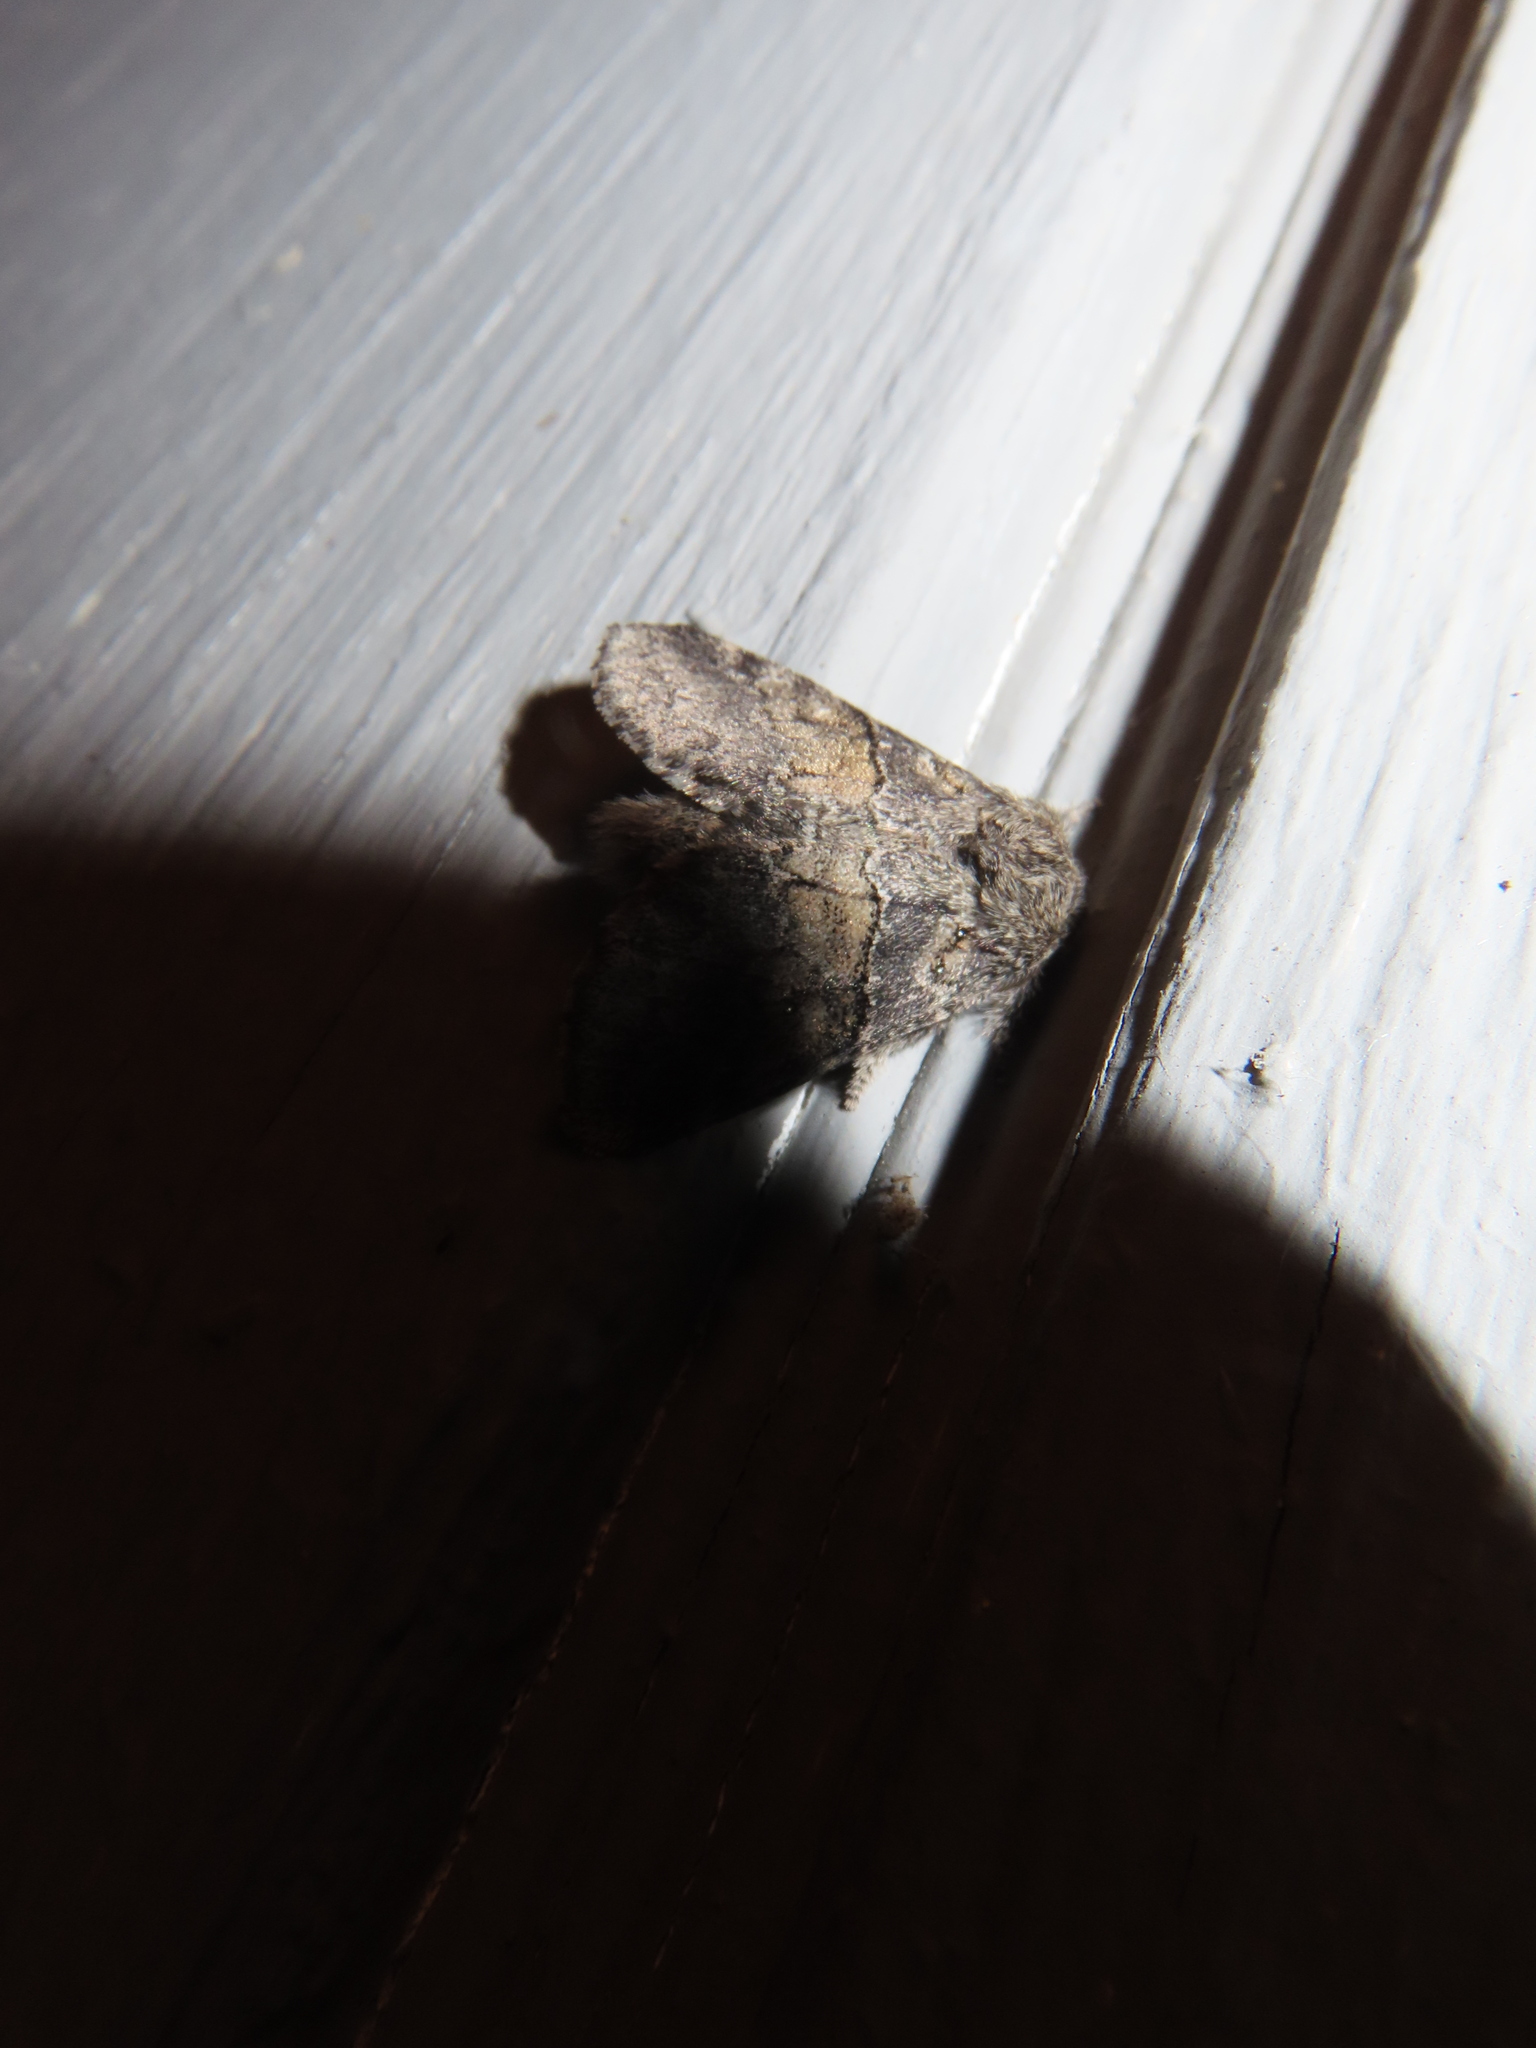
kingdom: Animalia
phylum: Arthropoda
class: Insecta
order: Lepidoptera
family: Notodontidae
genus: Gluphisia
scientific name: Gluphisia septentrionis
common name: Common gluphisia
